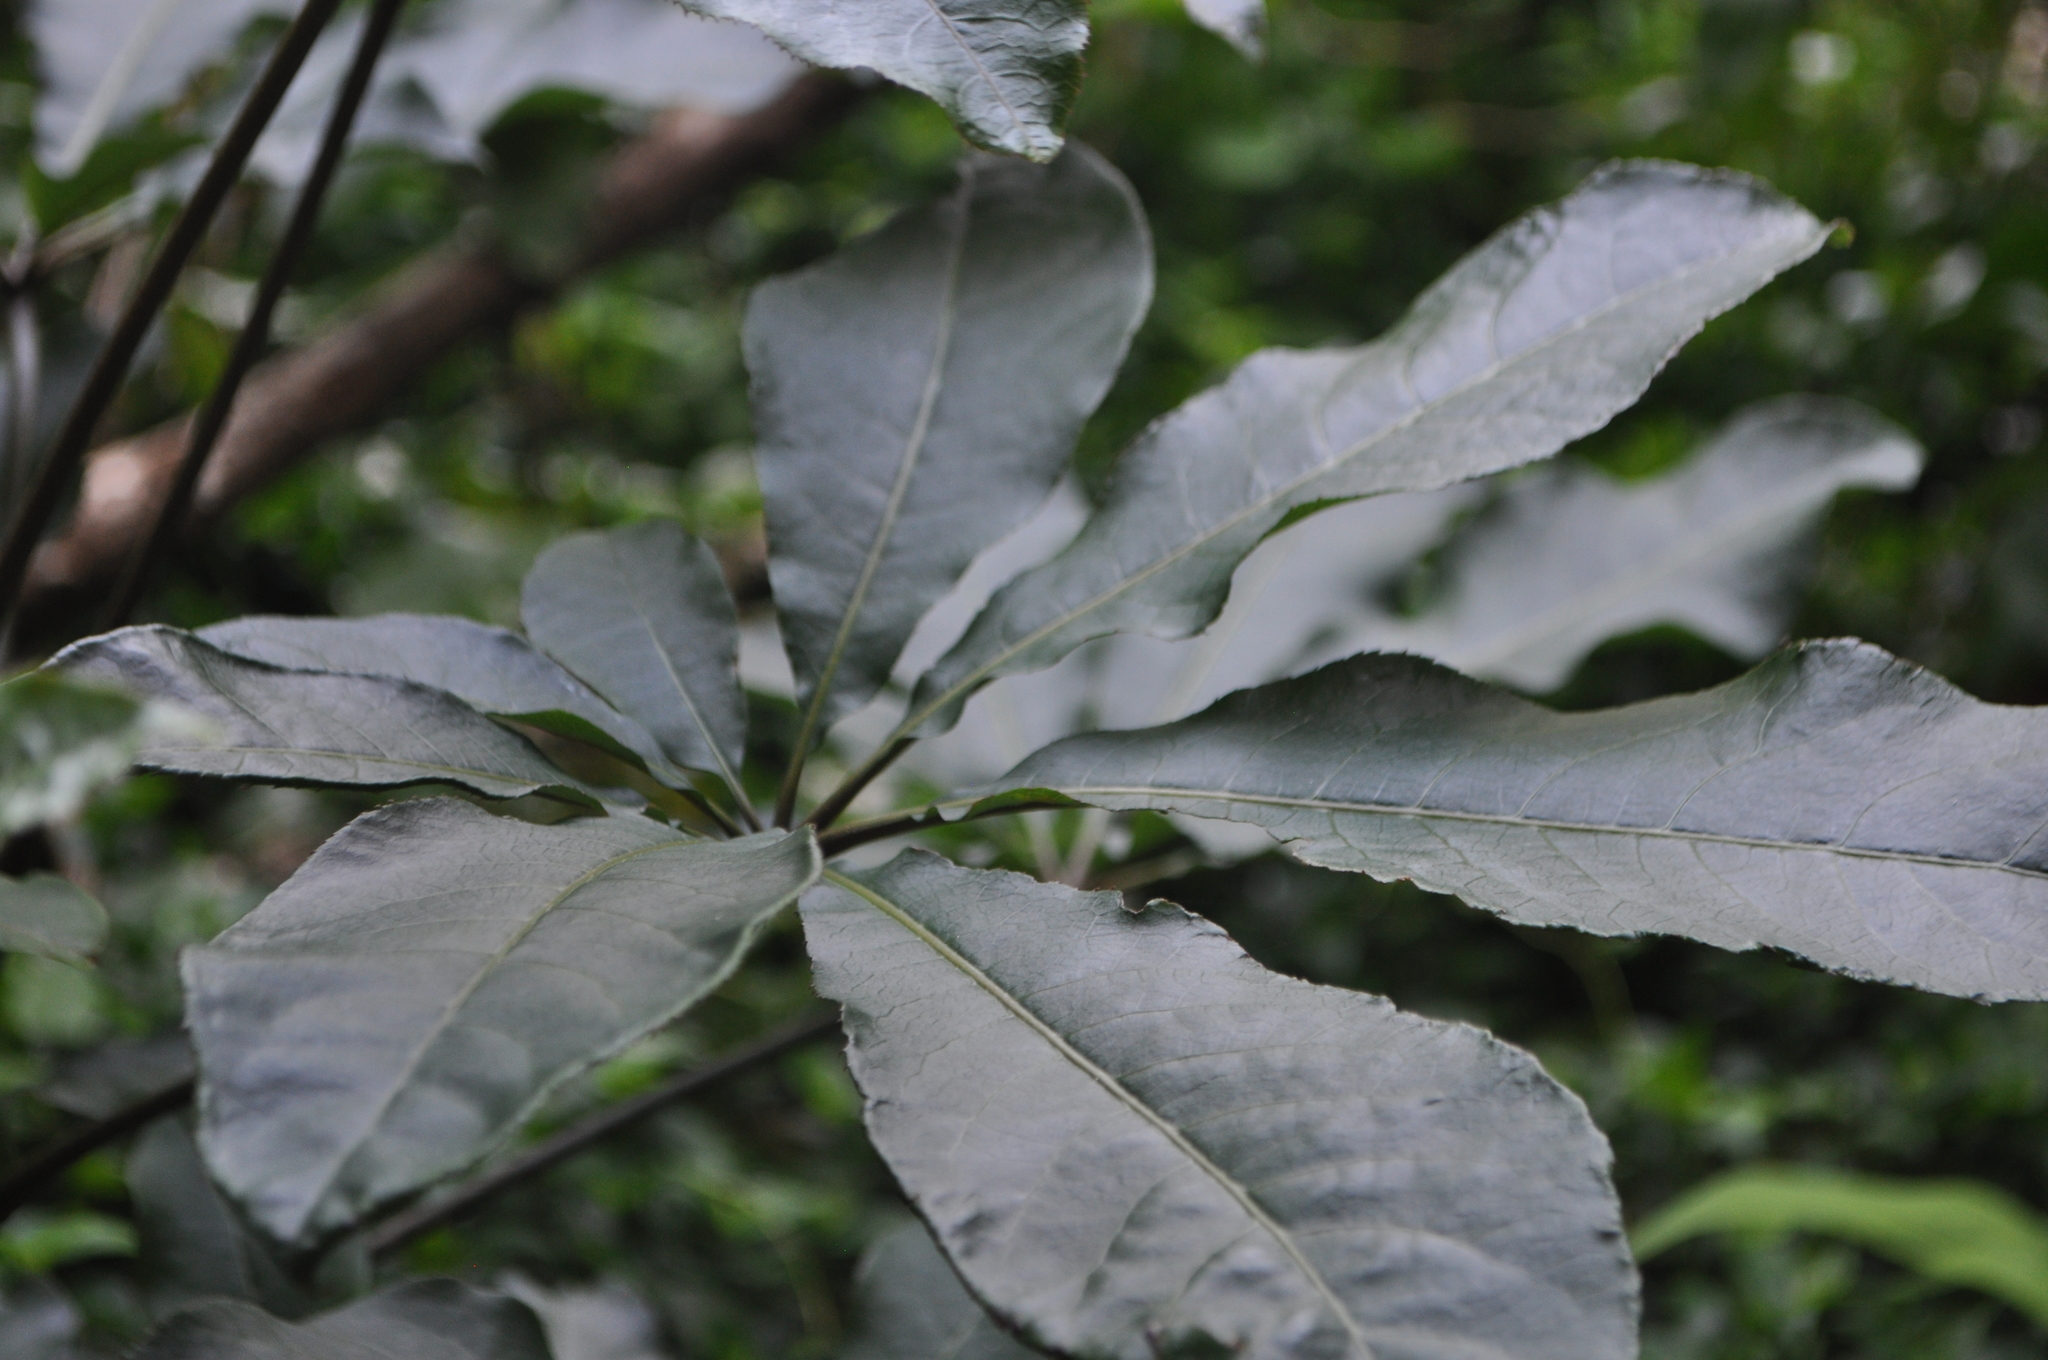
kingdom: Plantae
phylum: Tracheophyta
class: Magnoliopsida
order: Apiales
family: Araliaceae
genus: Schefflera
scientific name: Schefflera digitata
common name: Pate
